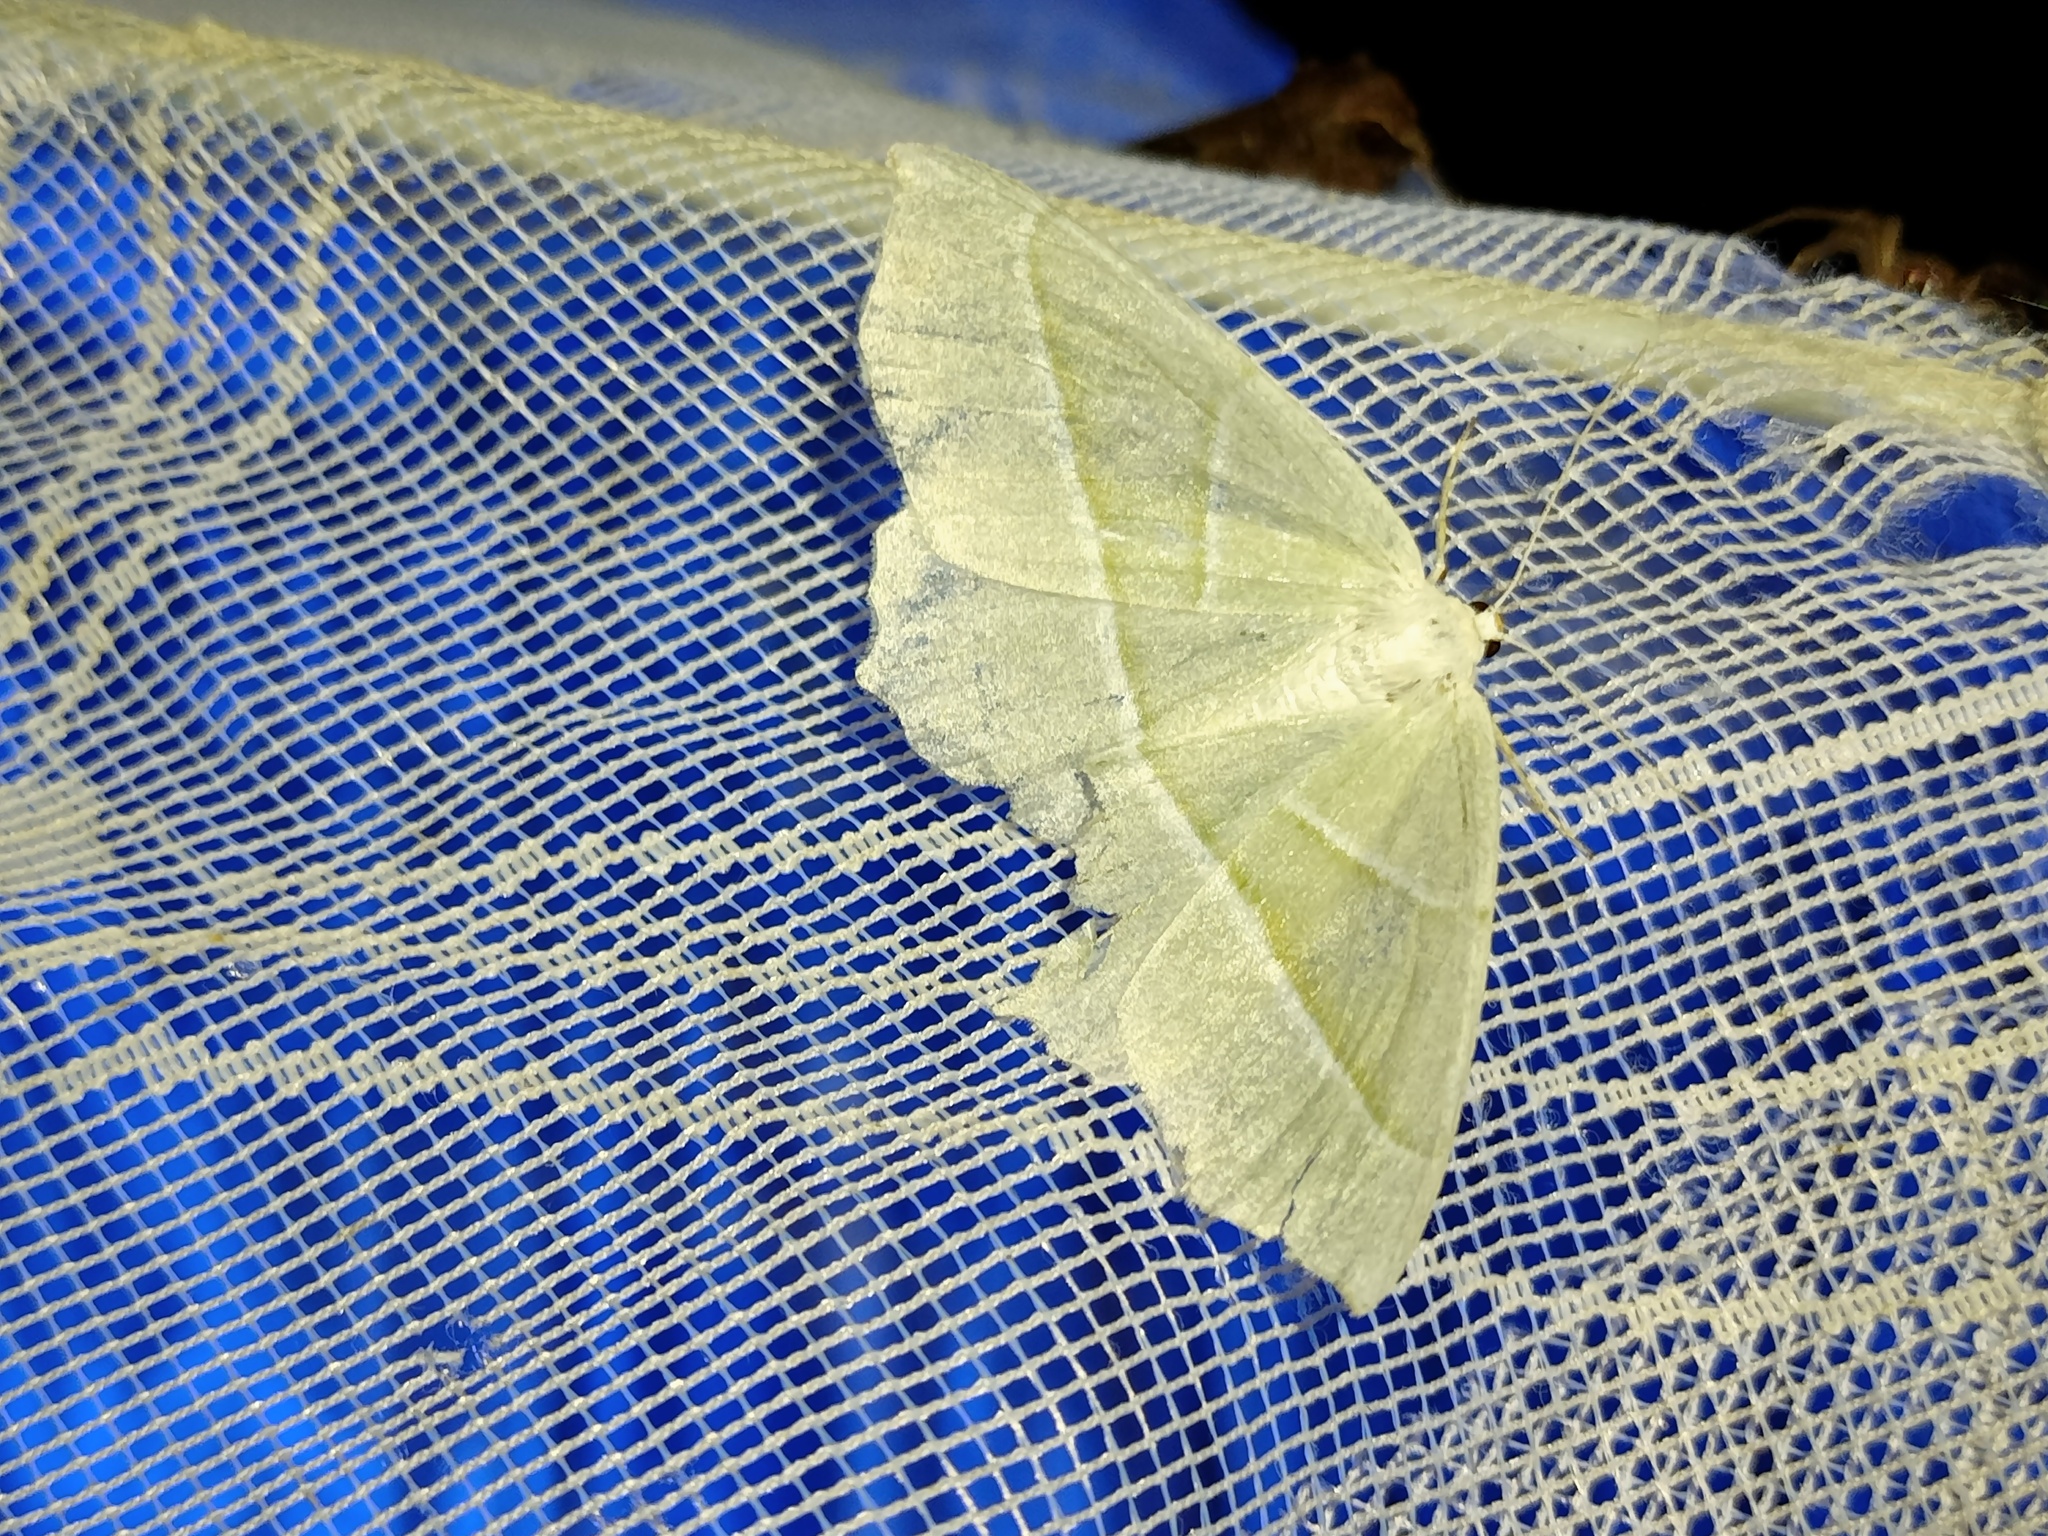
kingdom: Animalia
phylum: Arthropoda
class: Insecta
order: Lepidoptera
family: Geometridae
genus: Campaea
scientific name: Campaea margaritaria
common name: Light emerald
